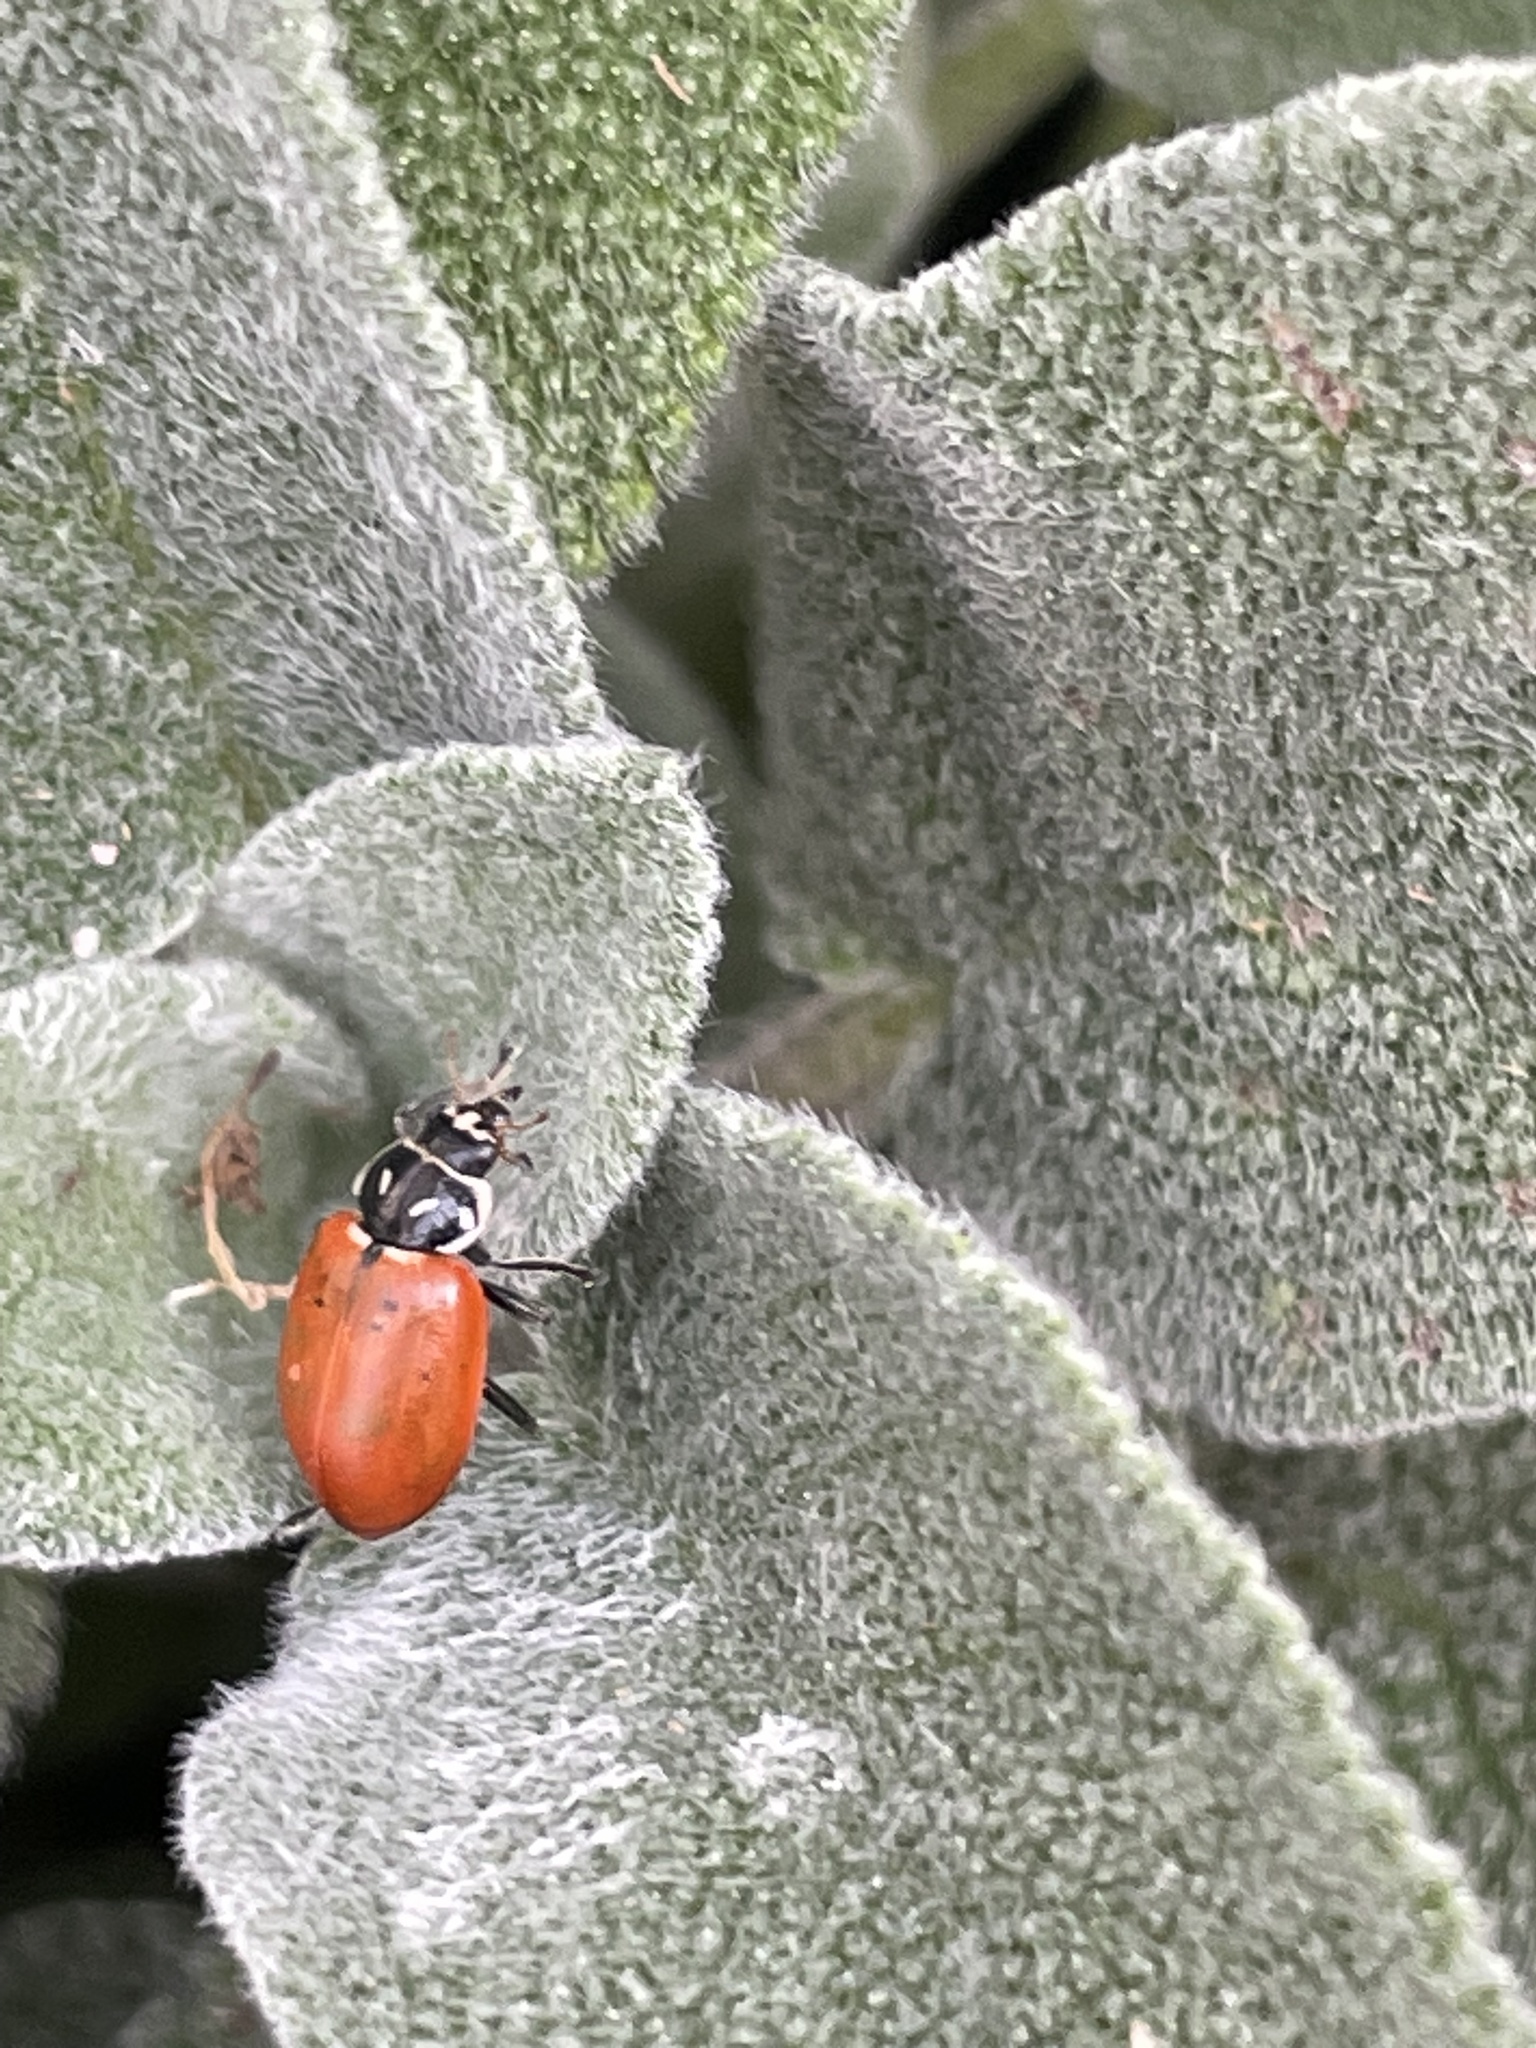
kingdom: Animalia
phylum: Arthropoda
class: Insecta
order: Coleoptera
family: Coccinellidae
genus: Hippodamia
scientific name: Hippodamia convergens
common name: Convergent lady beetle
